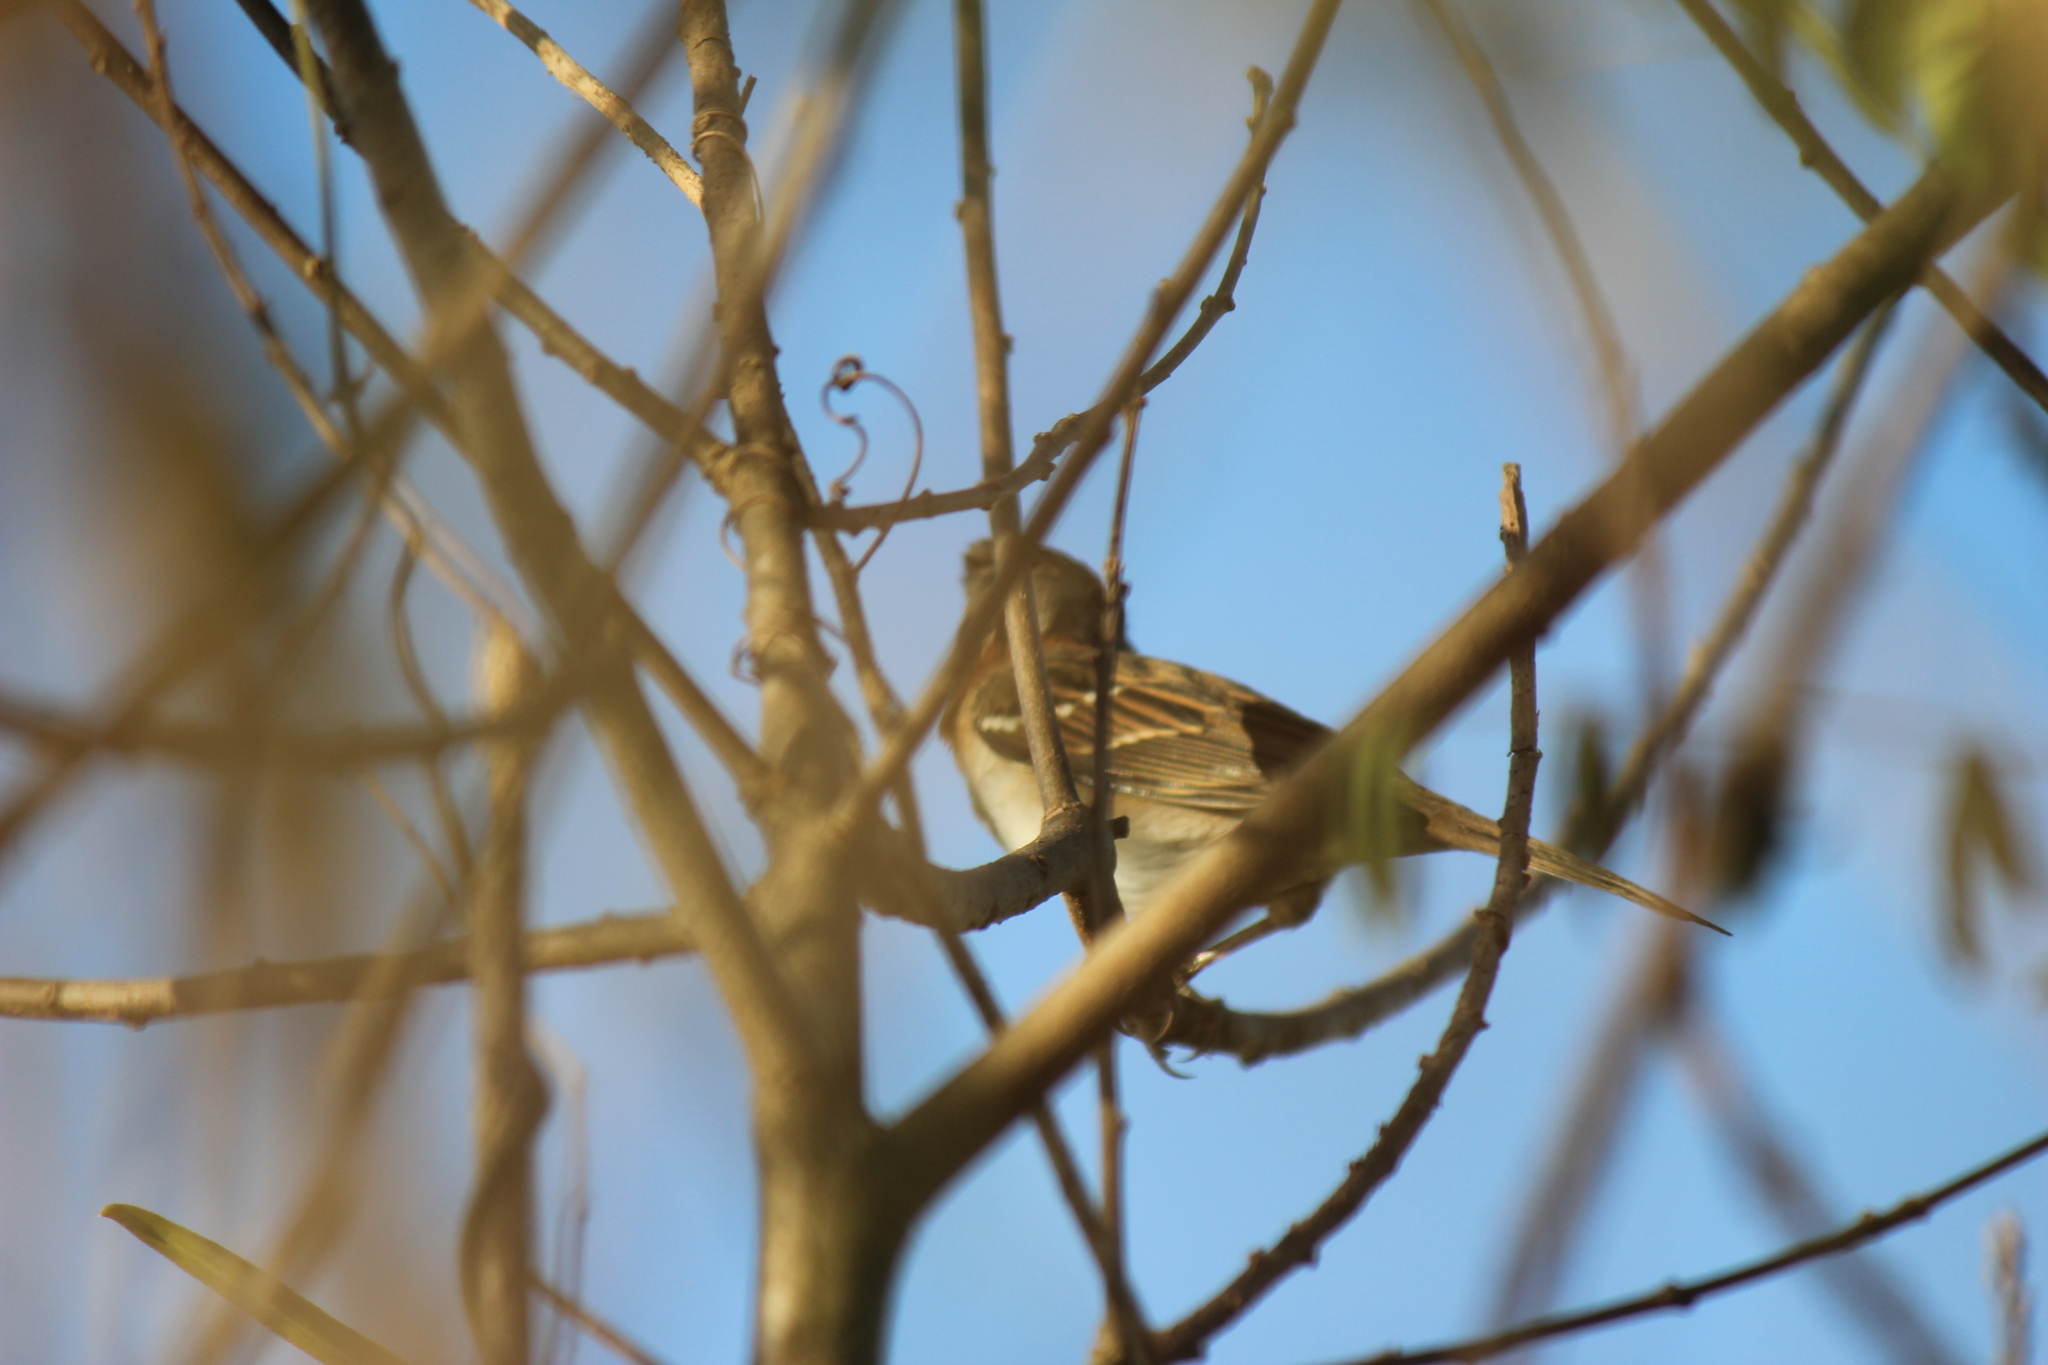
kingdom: Animalia
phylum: Chordata
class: Aves
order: Passeriformes
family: Passerellidae
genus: Zonotrichia
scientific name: Zonotrichia capensis
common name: Rufous-collared sparrow
